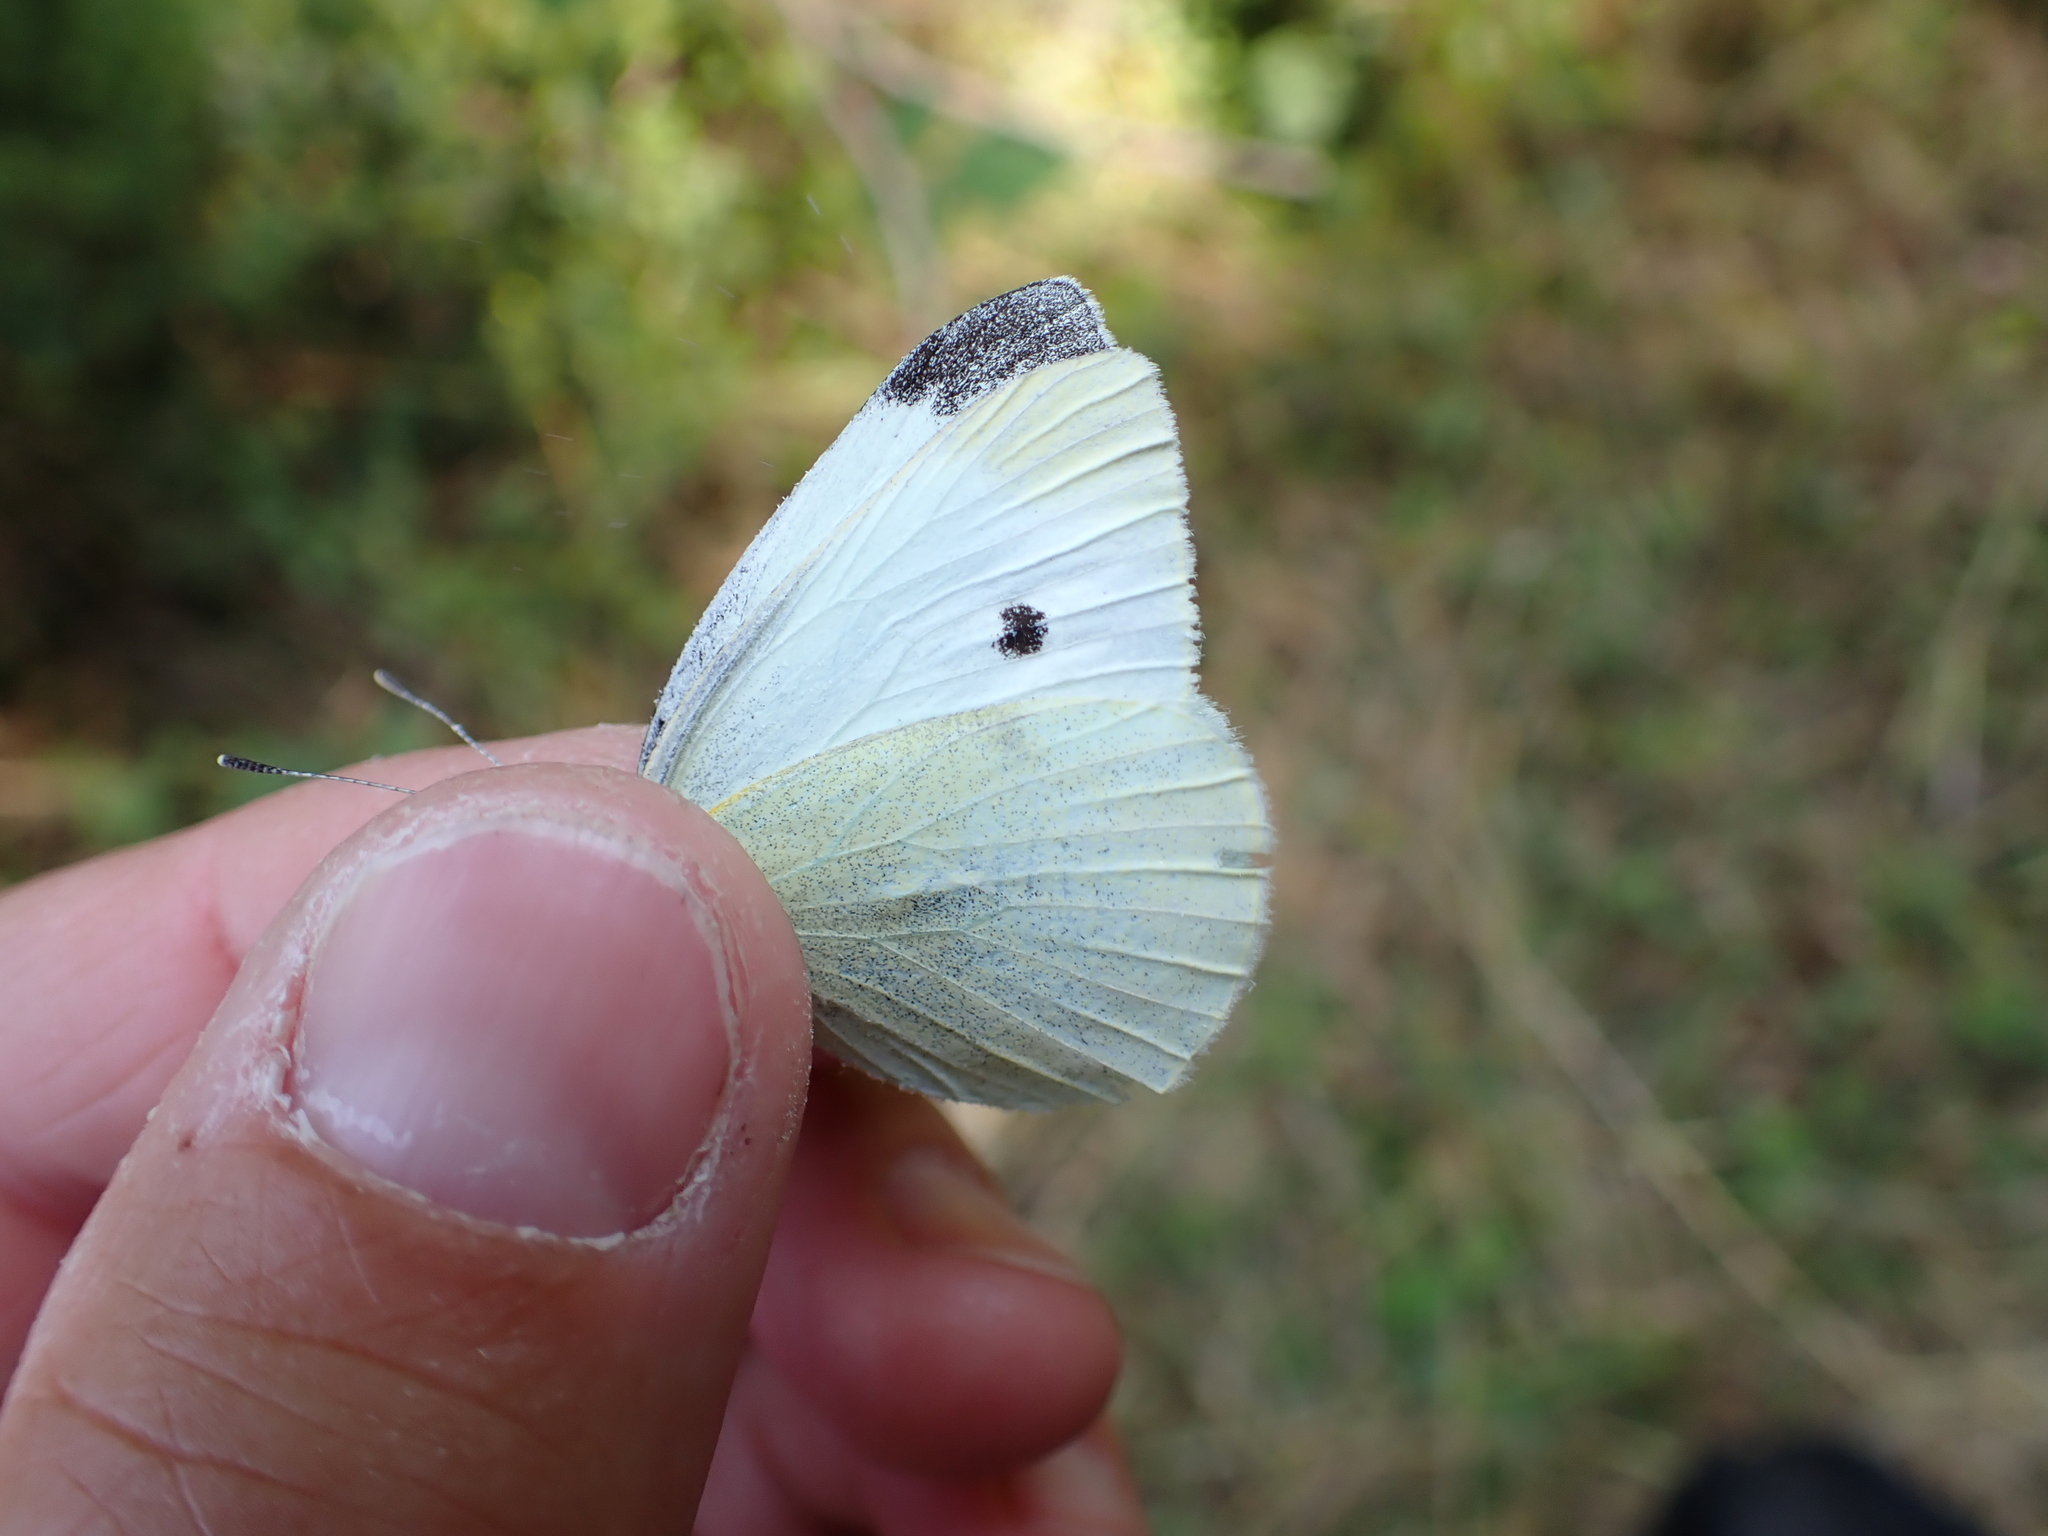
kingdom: Animalia
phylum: Arthropoda
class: Insecta
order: Lepidoptera
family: Pieridae
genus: Pieris
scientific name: Pieris rapae
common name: Small white
